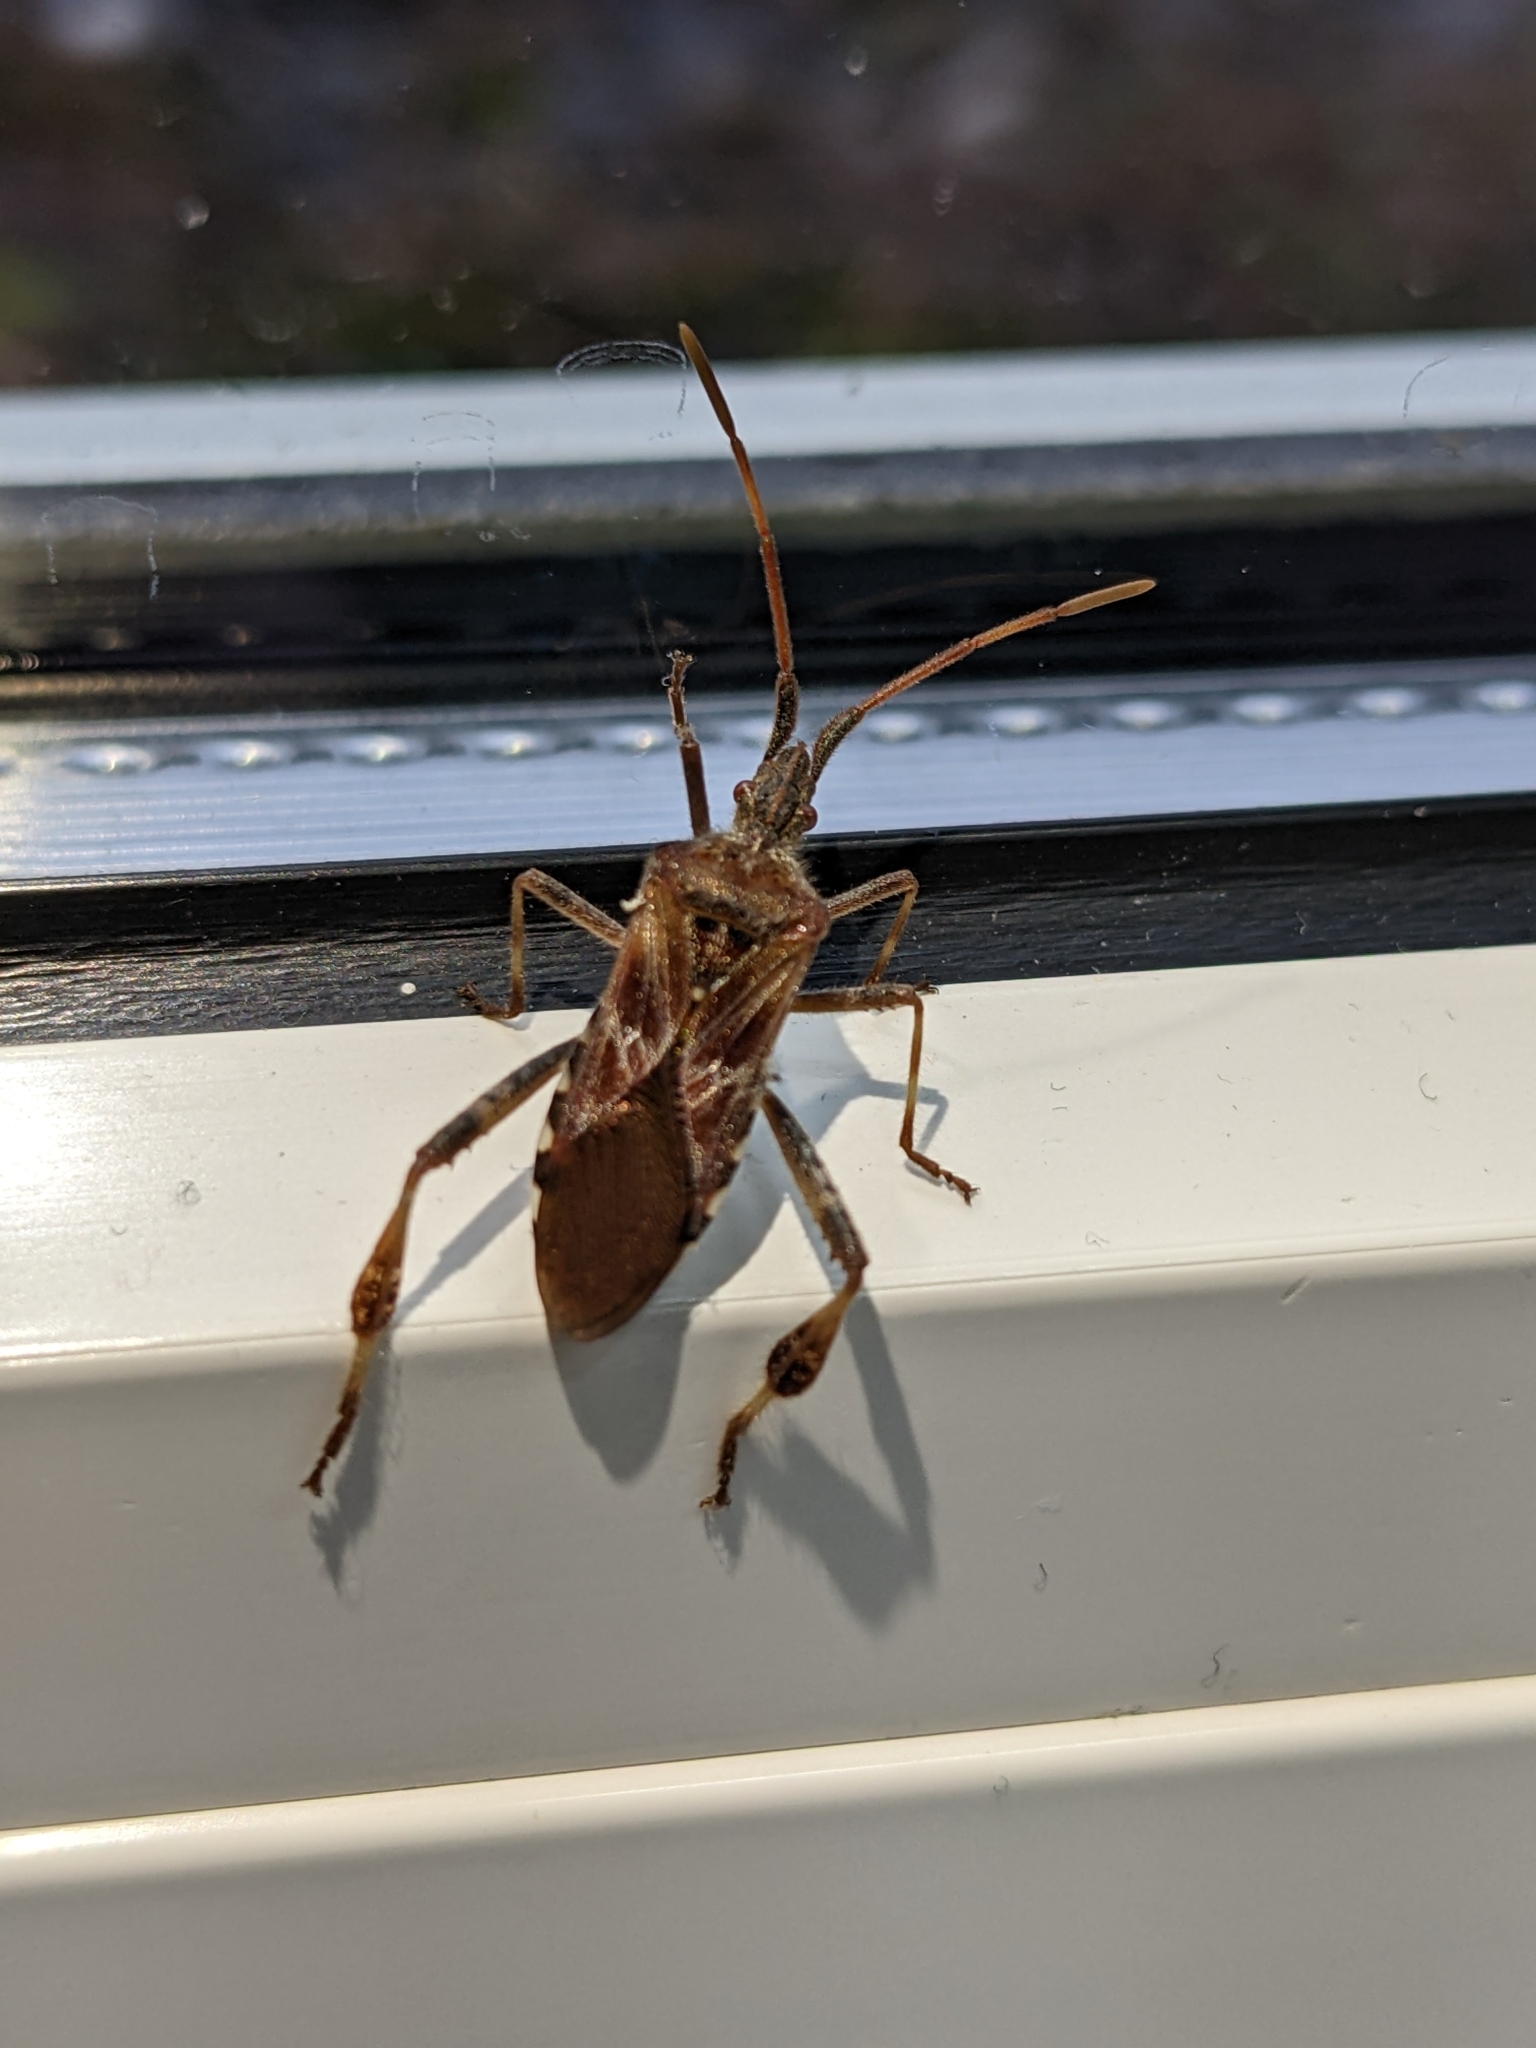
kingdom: Animalia
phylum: Arthropoda
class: Insecta
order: Hemiptera
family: Coreidae
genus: Leptoglossus
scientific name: Leptoglossus occidentalis
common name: Western conifer-seed bug
